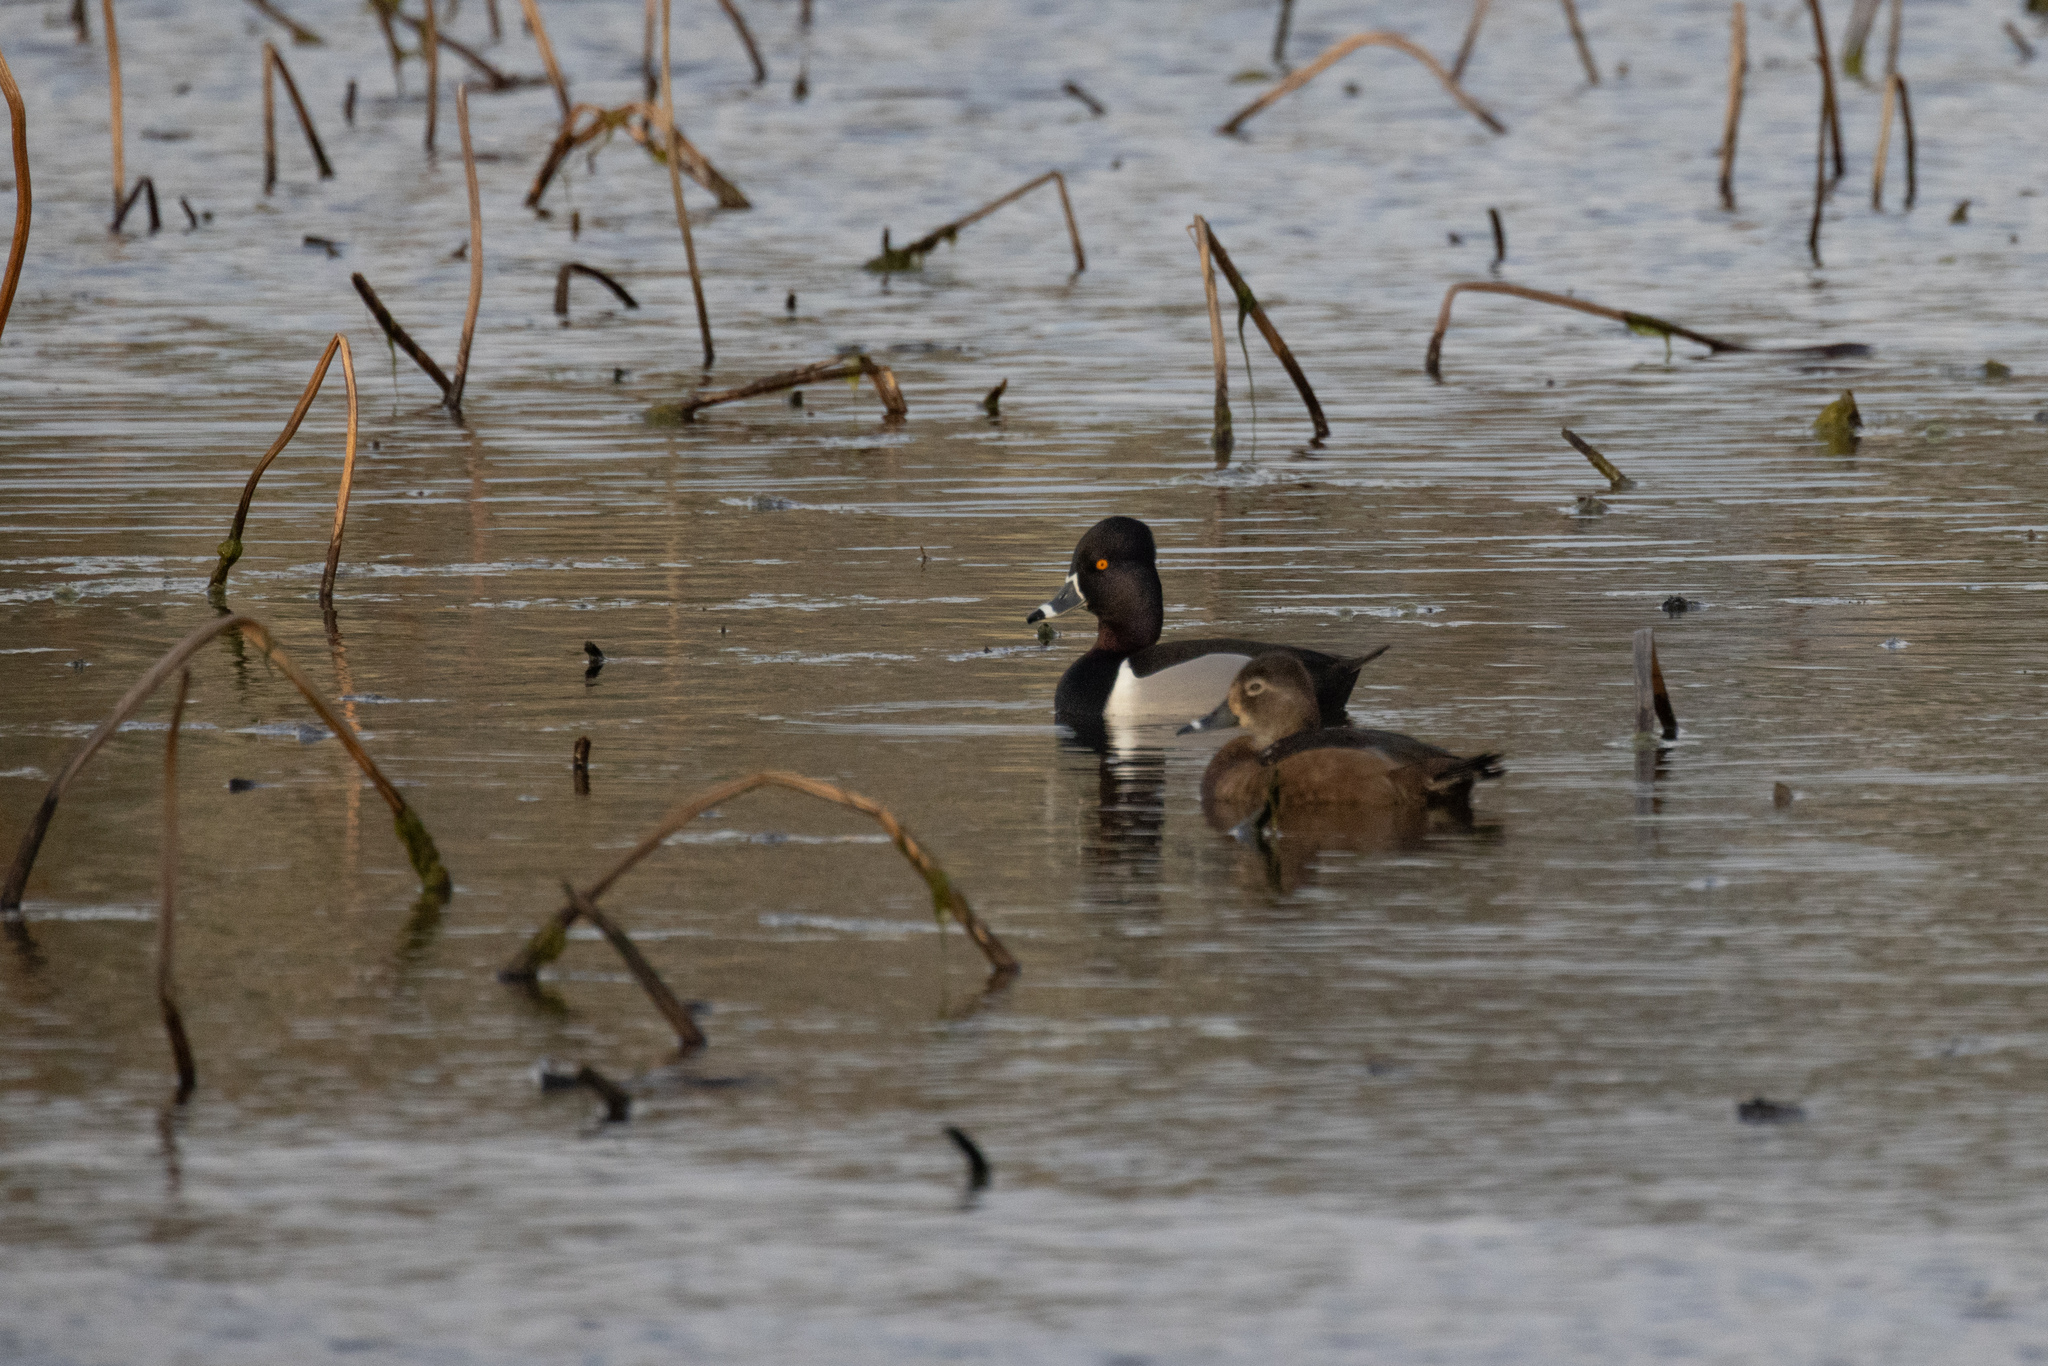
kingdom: Animalia
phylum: Chordata
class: Aves
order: Anseriformes
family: Anatidae
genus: Aythya
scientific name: Aythya collaris
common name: Ring-necked duck
